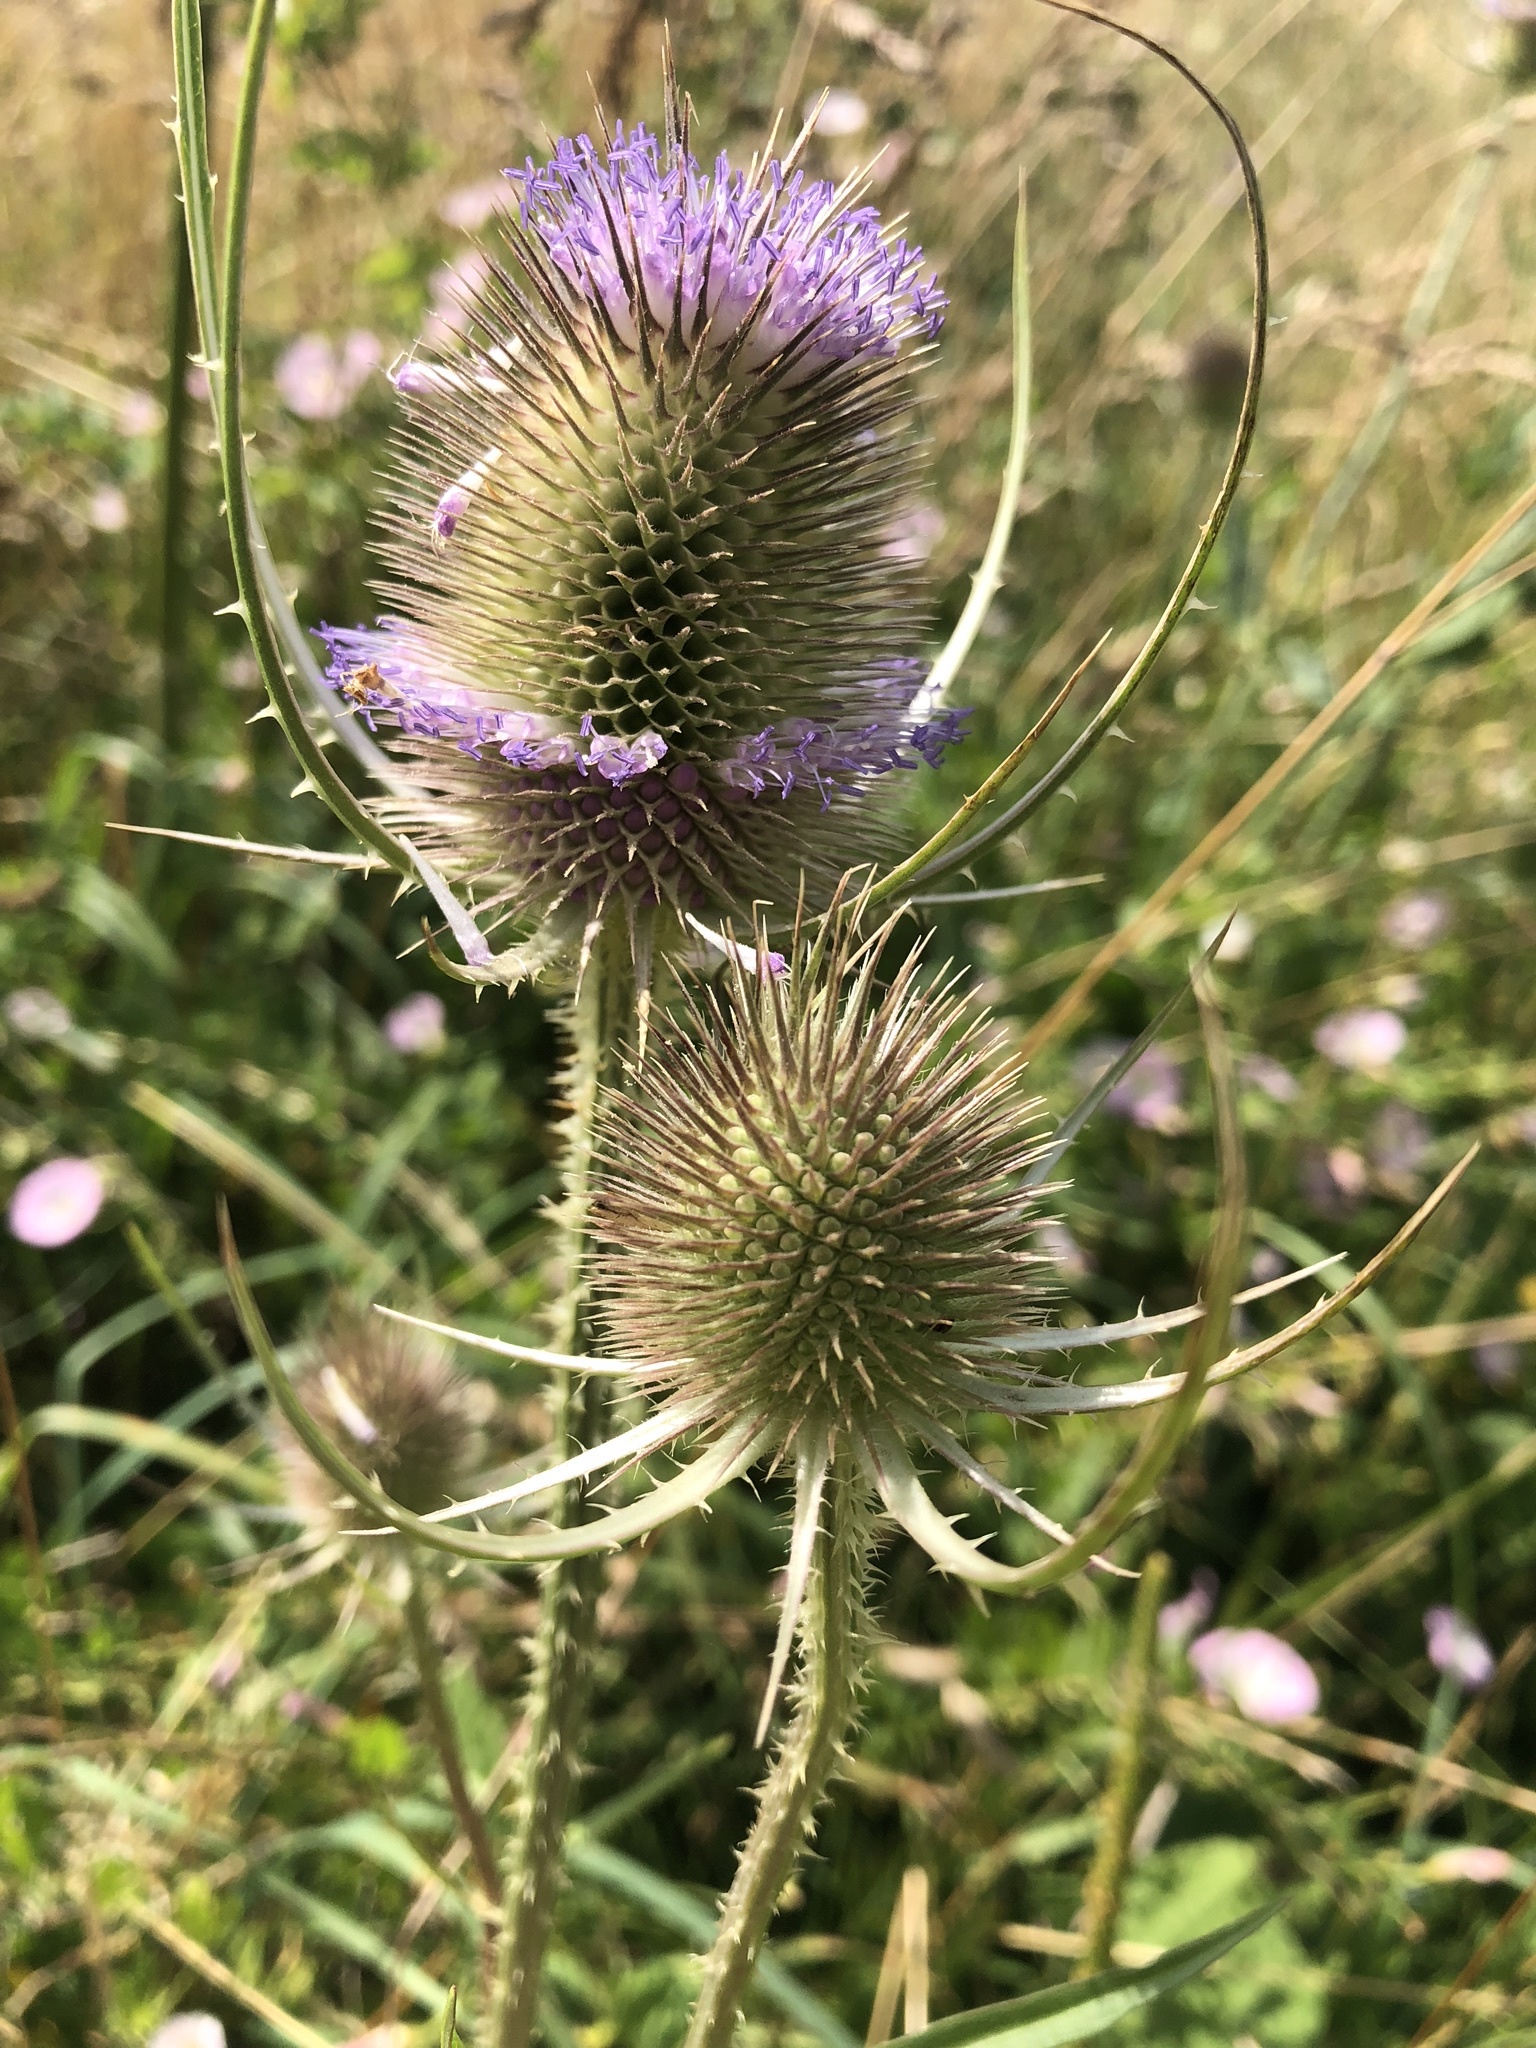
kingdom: Plantae
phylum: Tracheophyta
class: Magnoliopsida
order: Dipsacales
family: Caprifoliaceae
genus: Dipsacus
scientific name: Dipsacus fullonum
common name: Teasel
